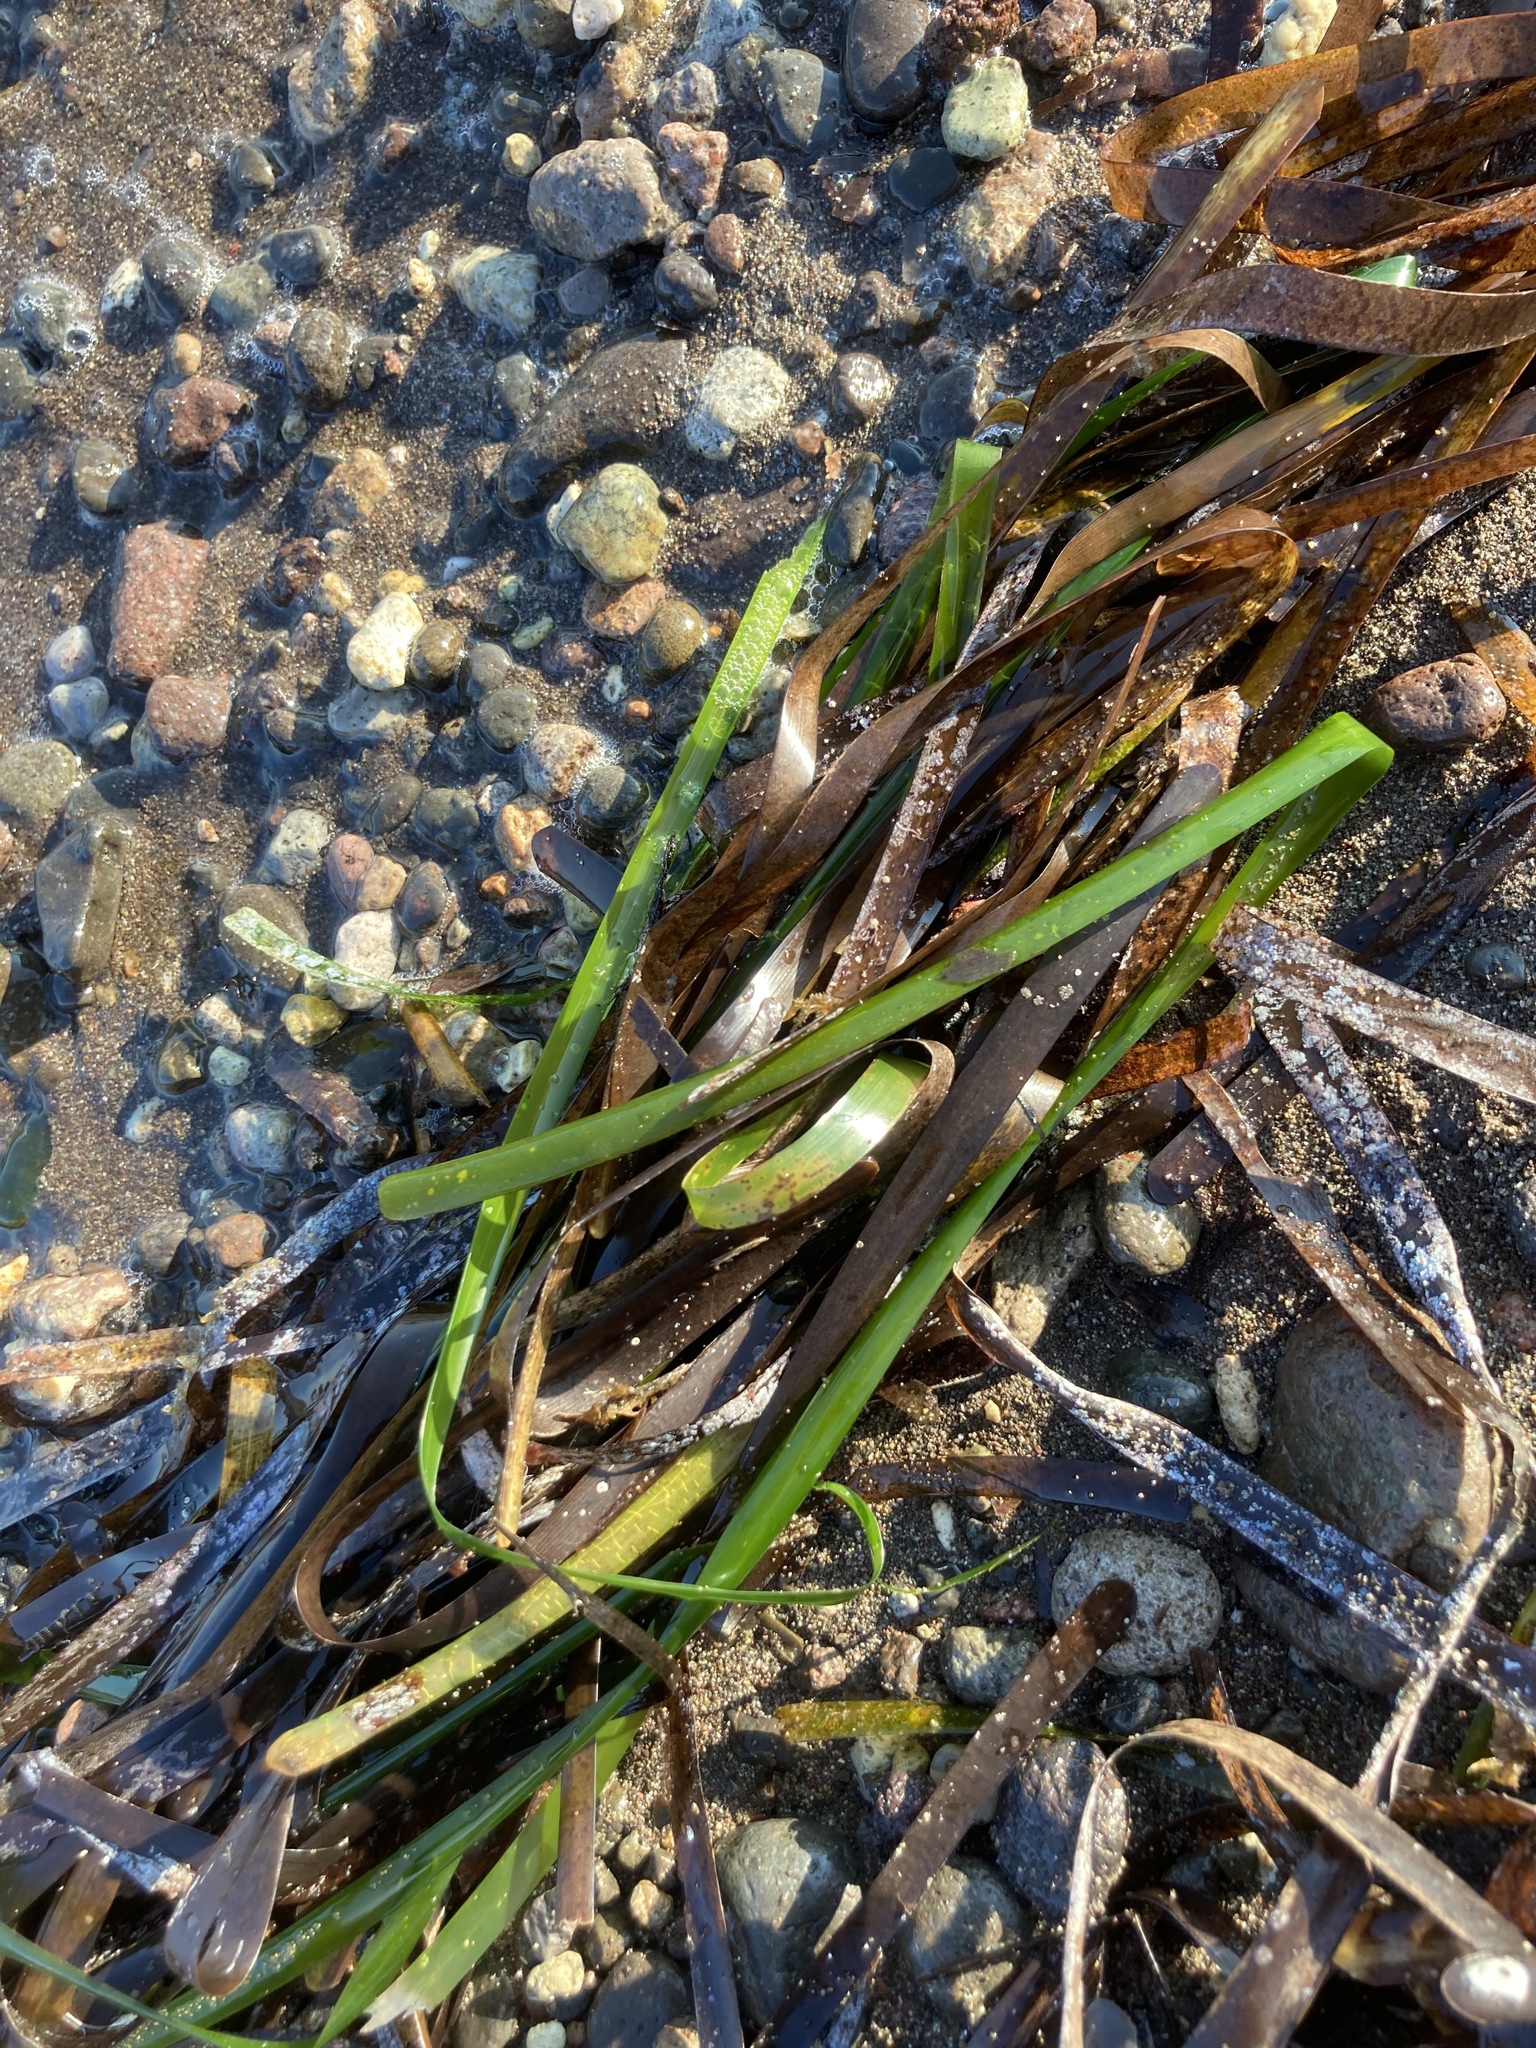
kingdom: Plantae
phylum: Tracheophyta
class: Liliopsida
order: Alismatales
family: Posidoniaceae
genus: Posidonia
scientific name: Posidonia oceanica
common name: Mediterranean tapeweed
